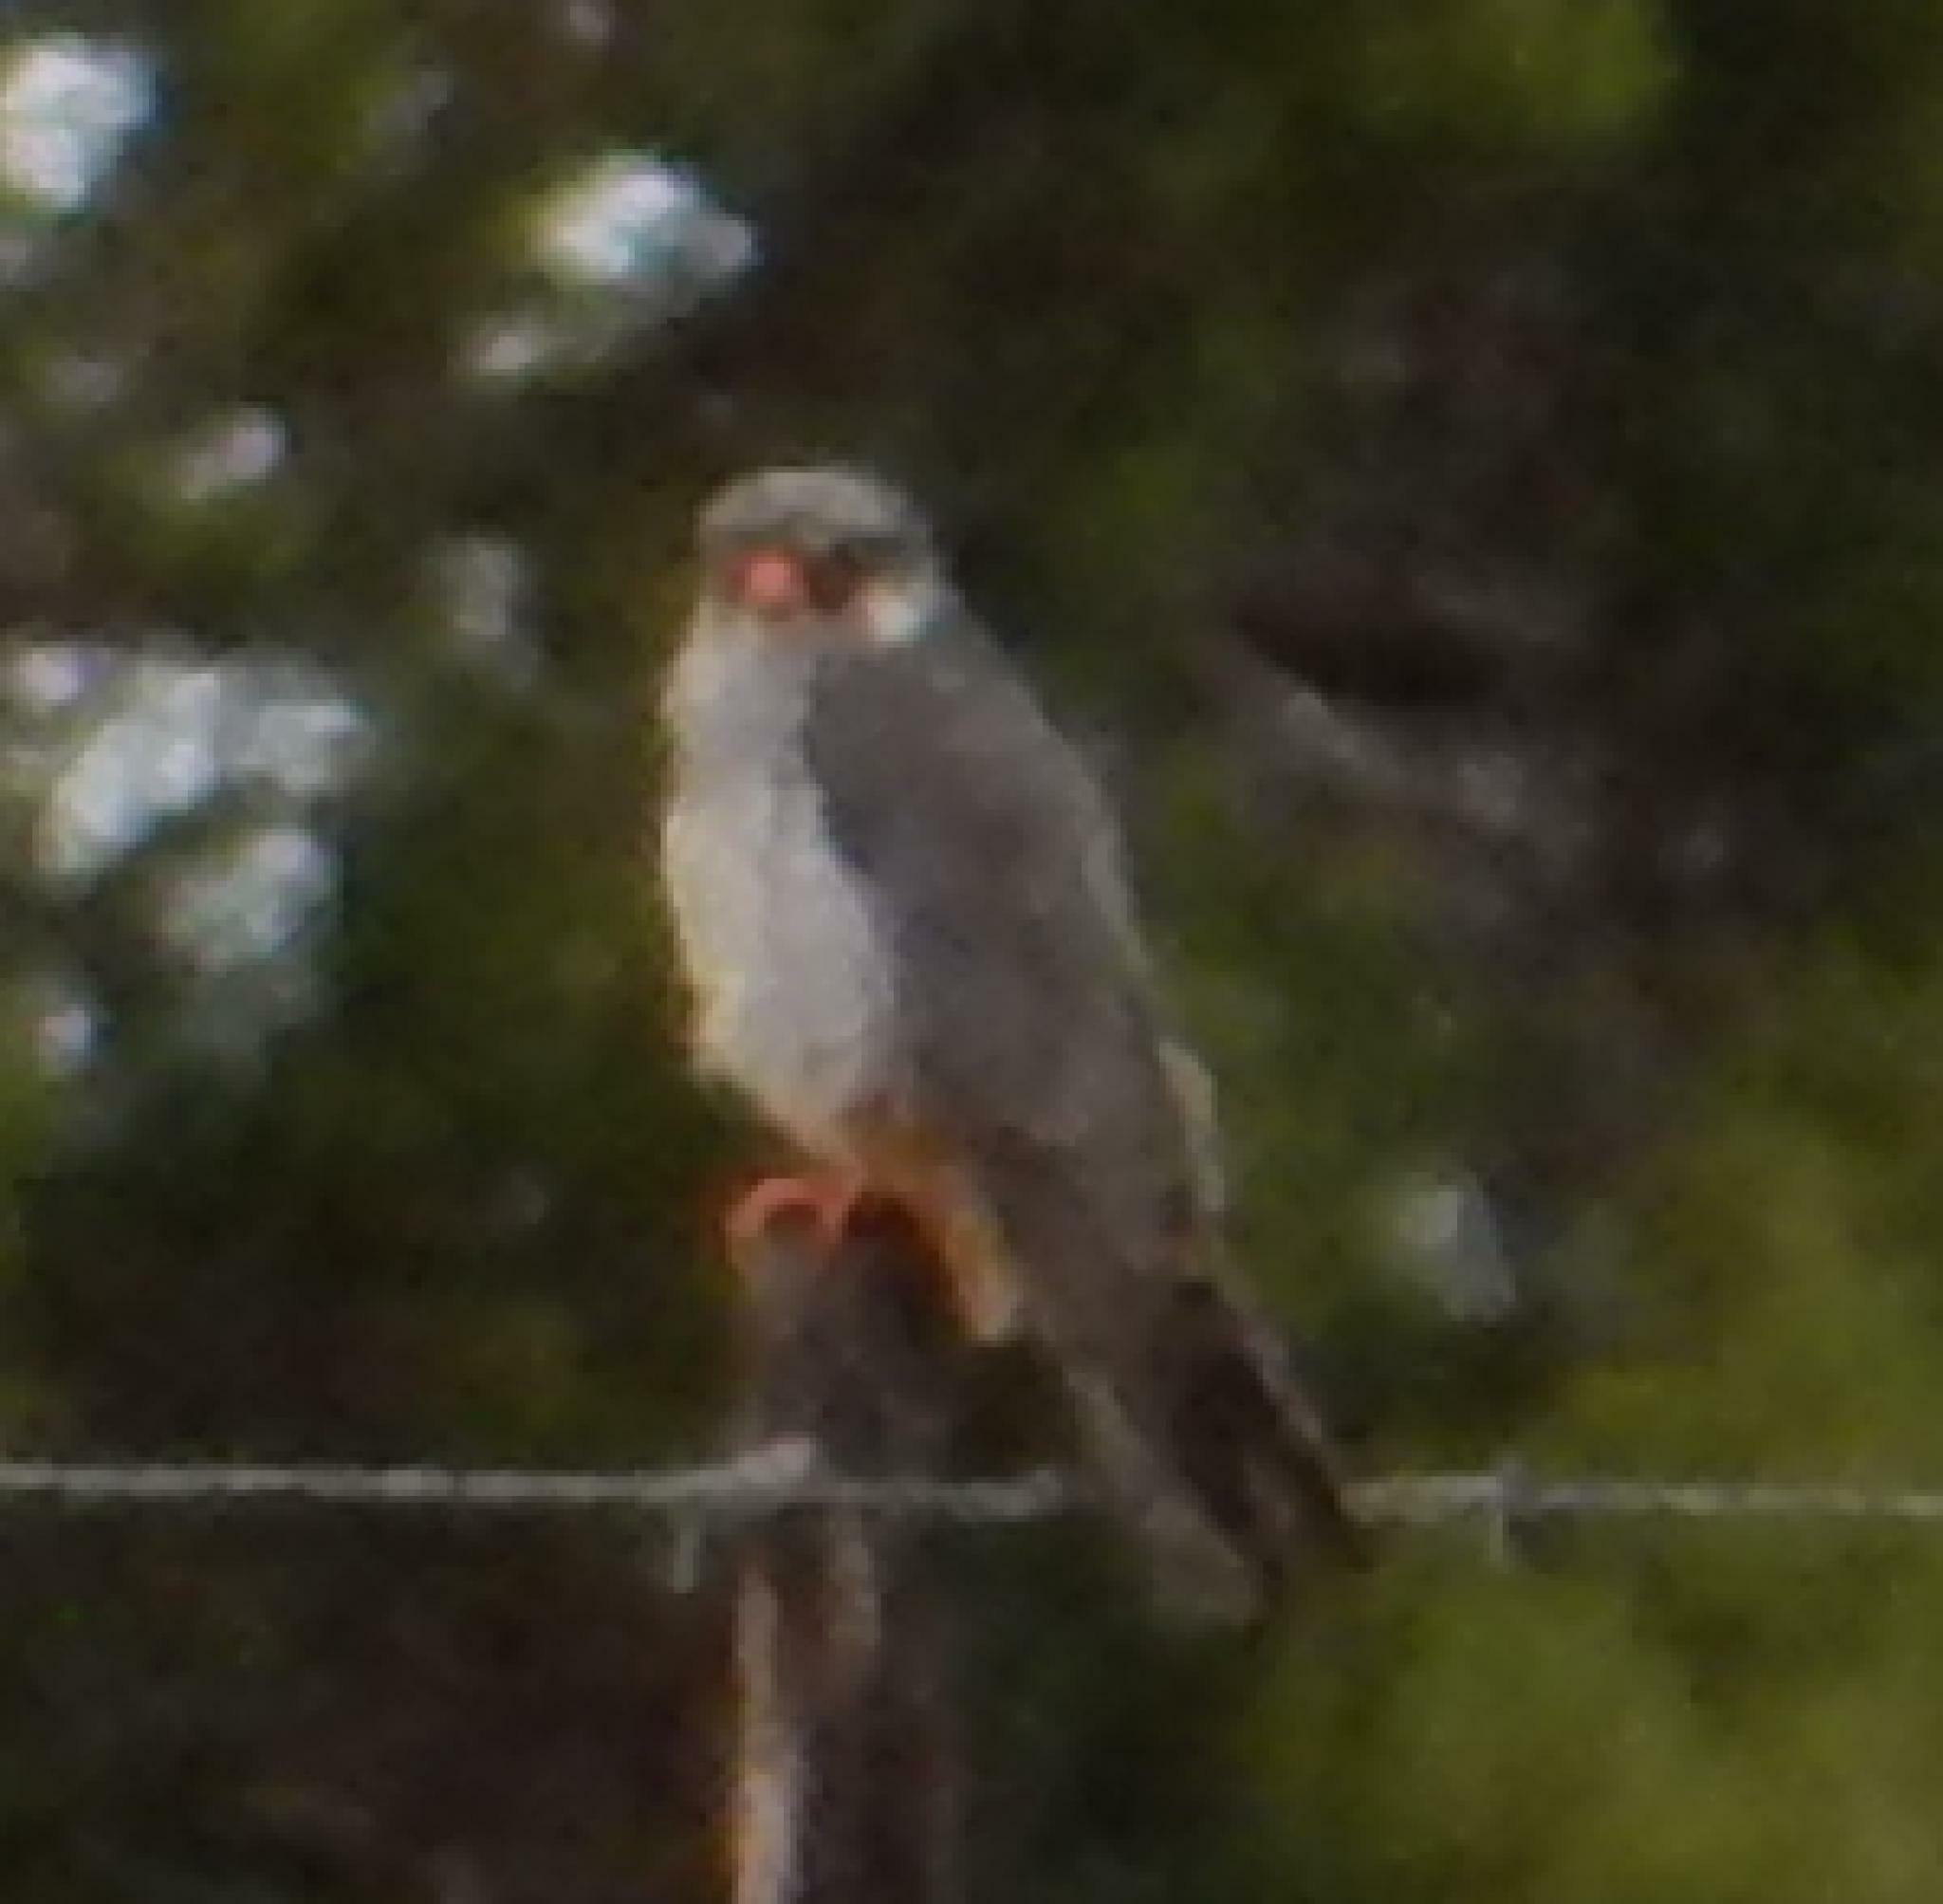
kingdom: Animalia
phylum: Chordata
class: Aves
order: Falconiformes
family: Falconidae
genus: Falco
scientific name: Falco amurensis
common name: Amur falcon
